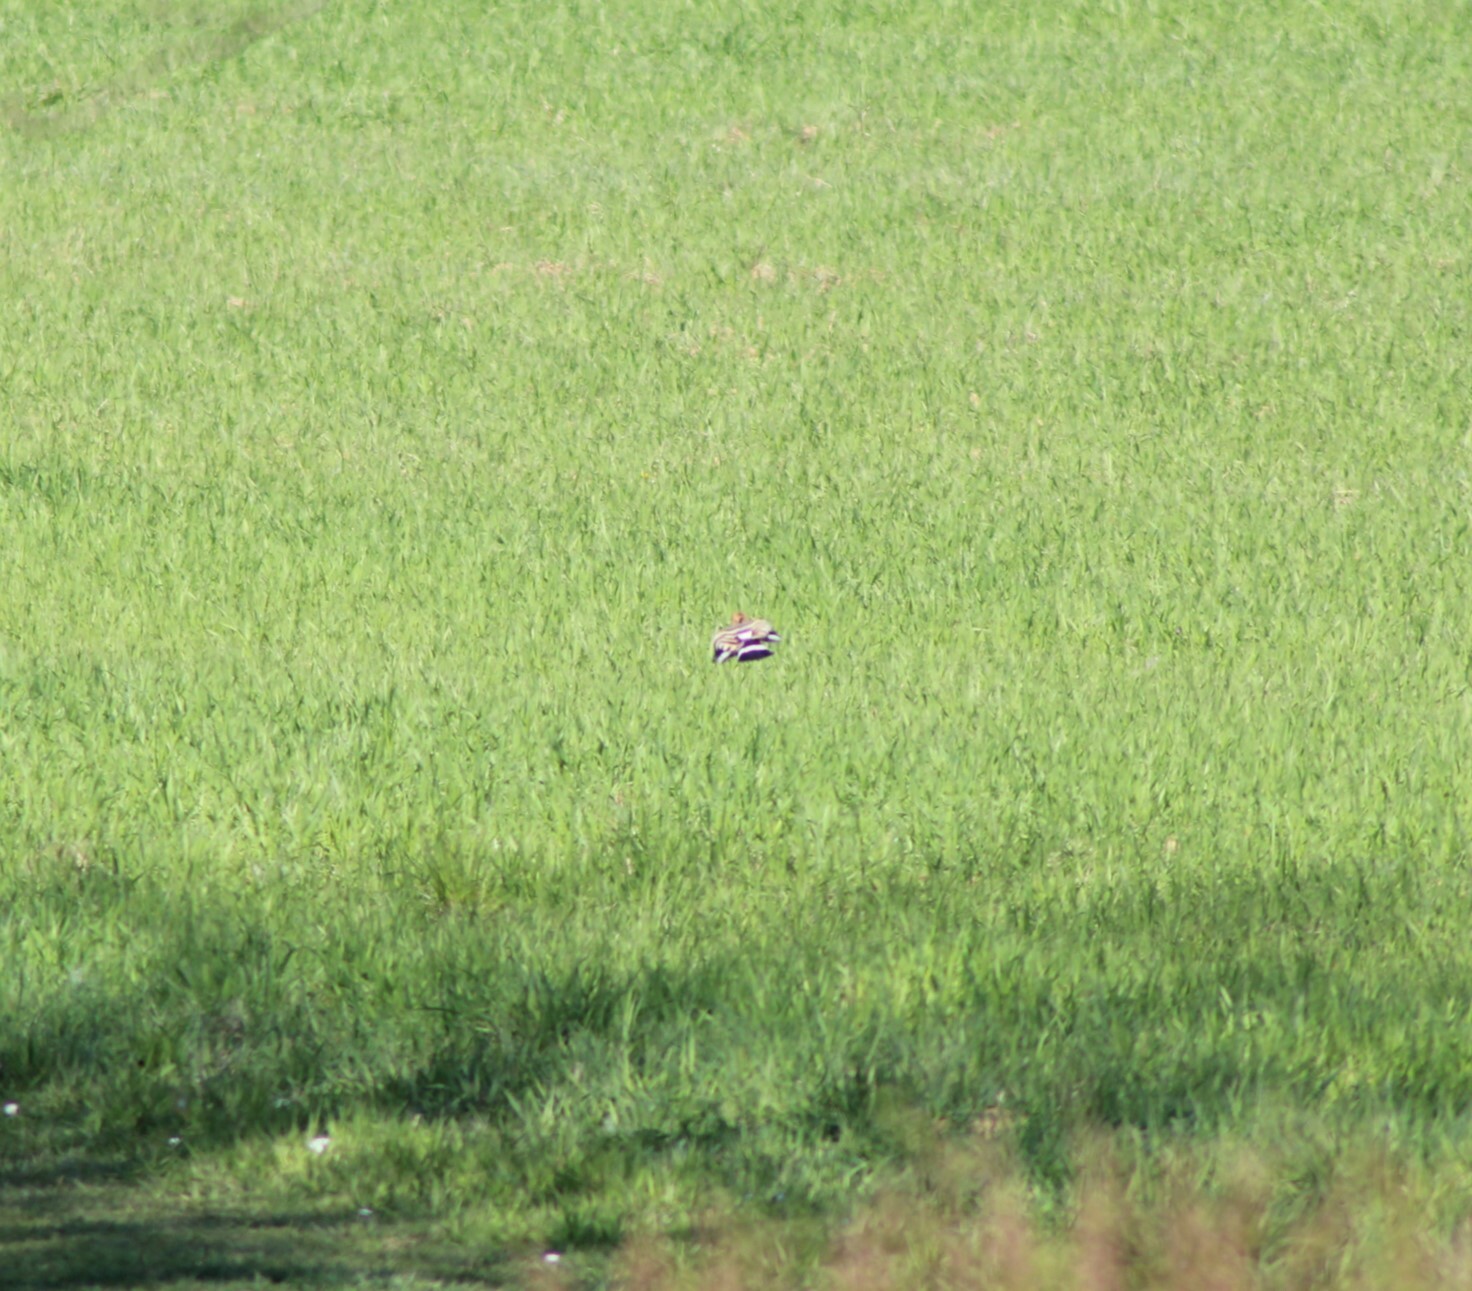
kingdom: Animalia
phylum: Chordata
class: Aves
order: Bucerotiformes
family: Upupidae
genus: Upupa
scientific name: Upupa epops
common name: Eurasian hoopoe
